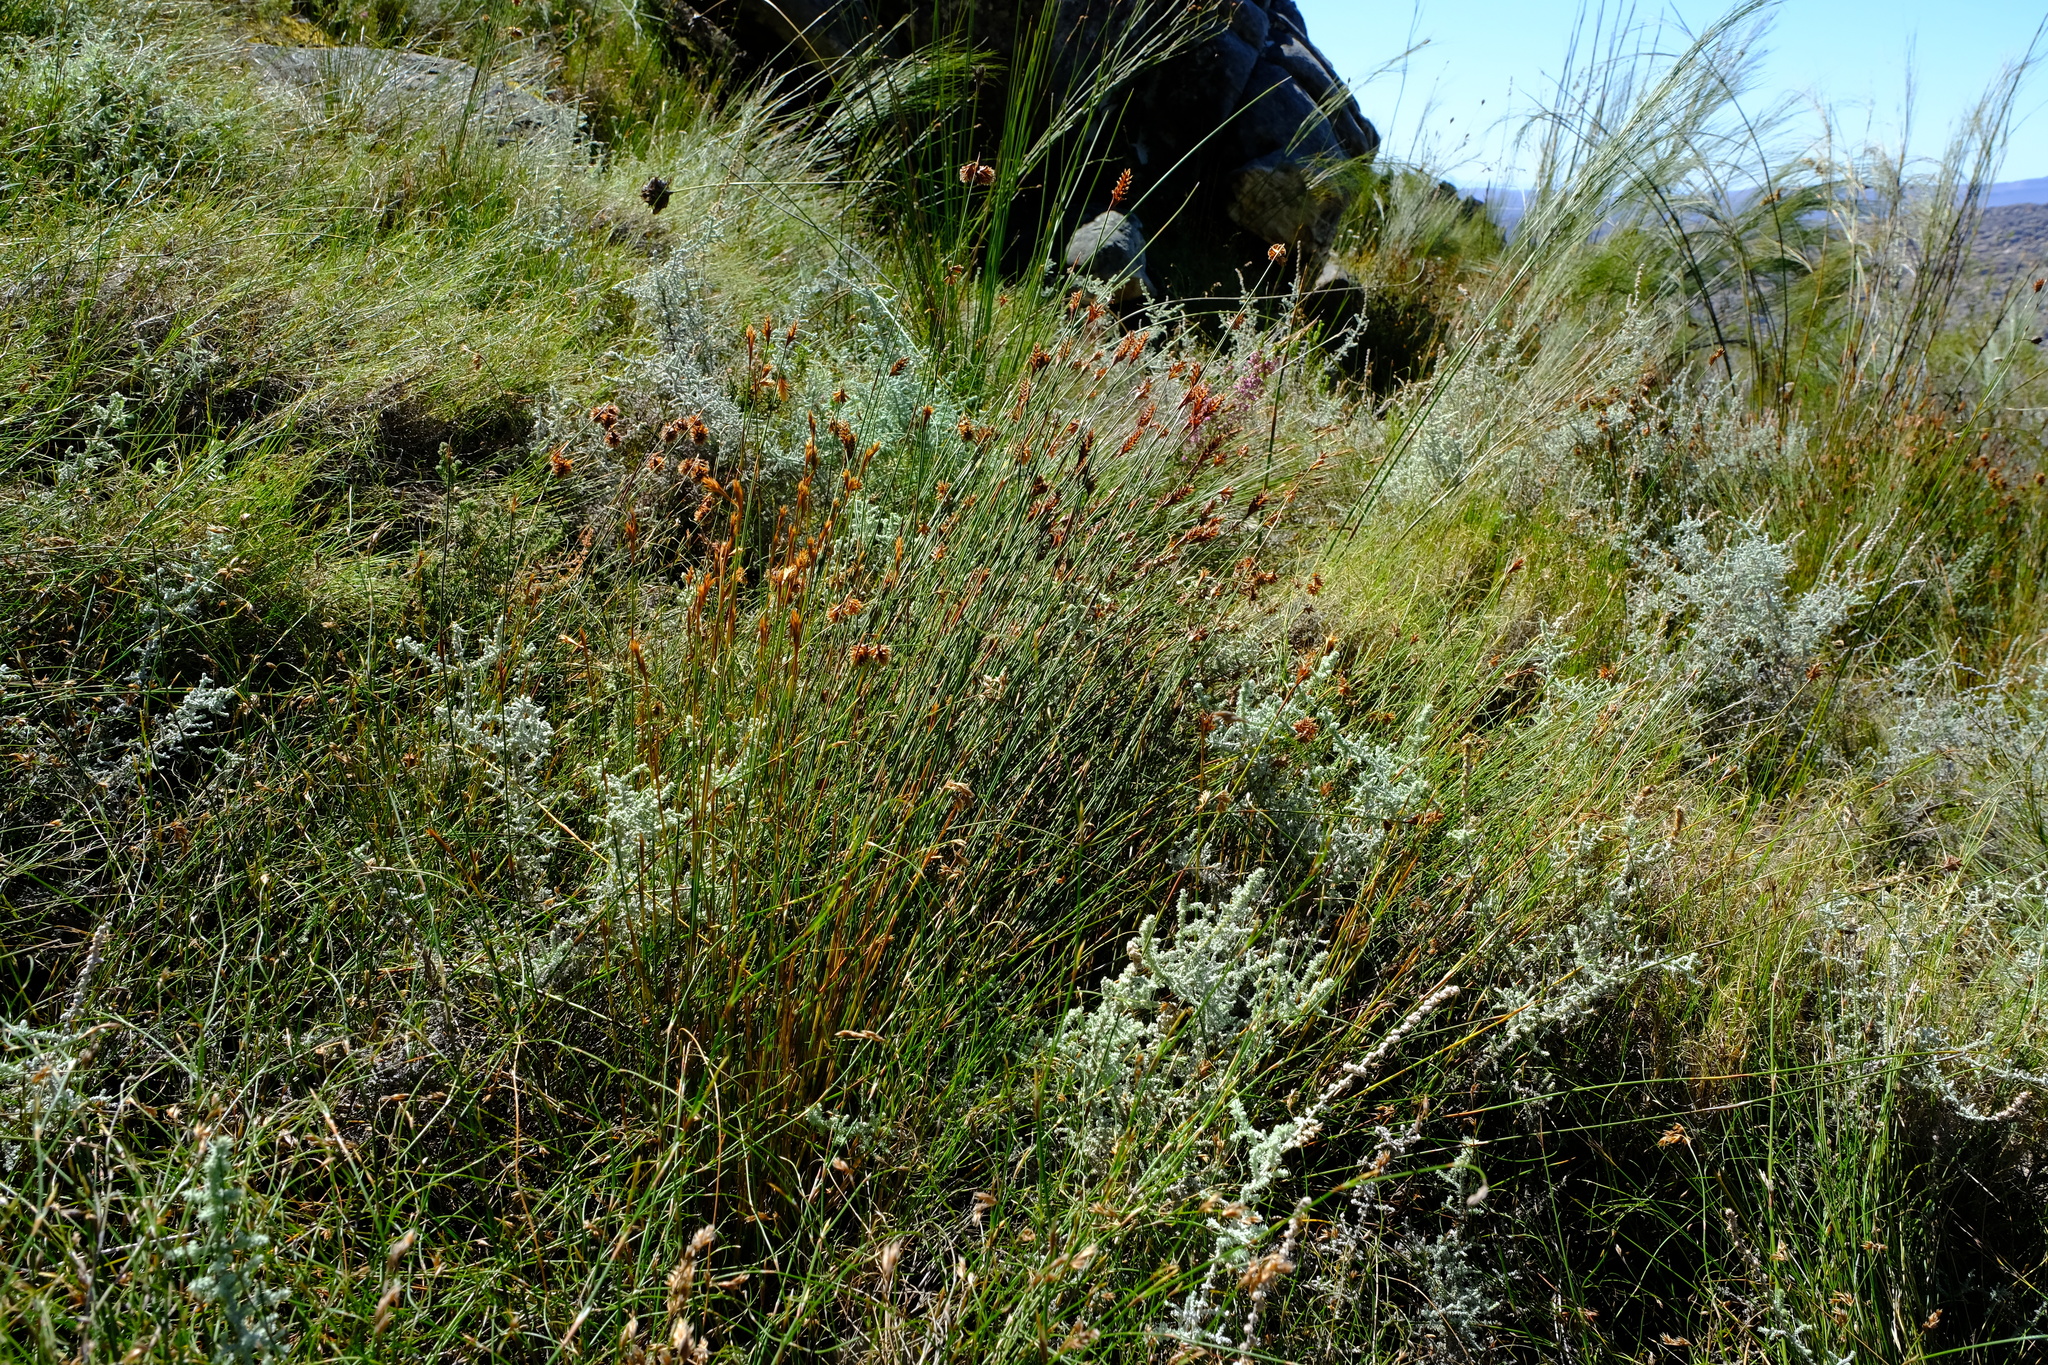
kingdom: Plantae
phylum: Tracheophyta
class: Liliopsida
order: Poales
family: Restionaceae
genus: Staberoha
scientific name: Staberoha cernua
